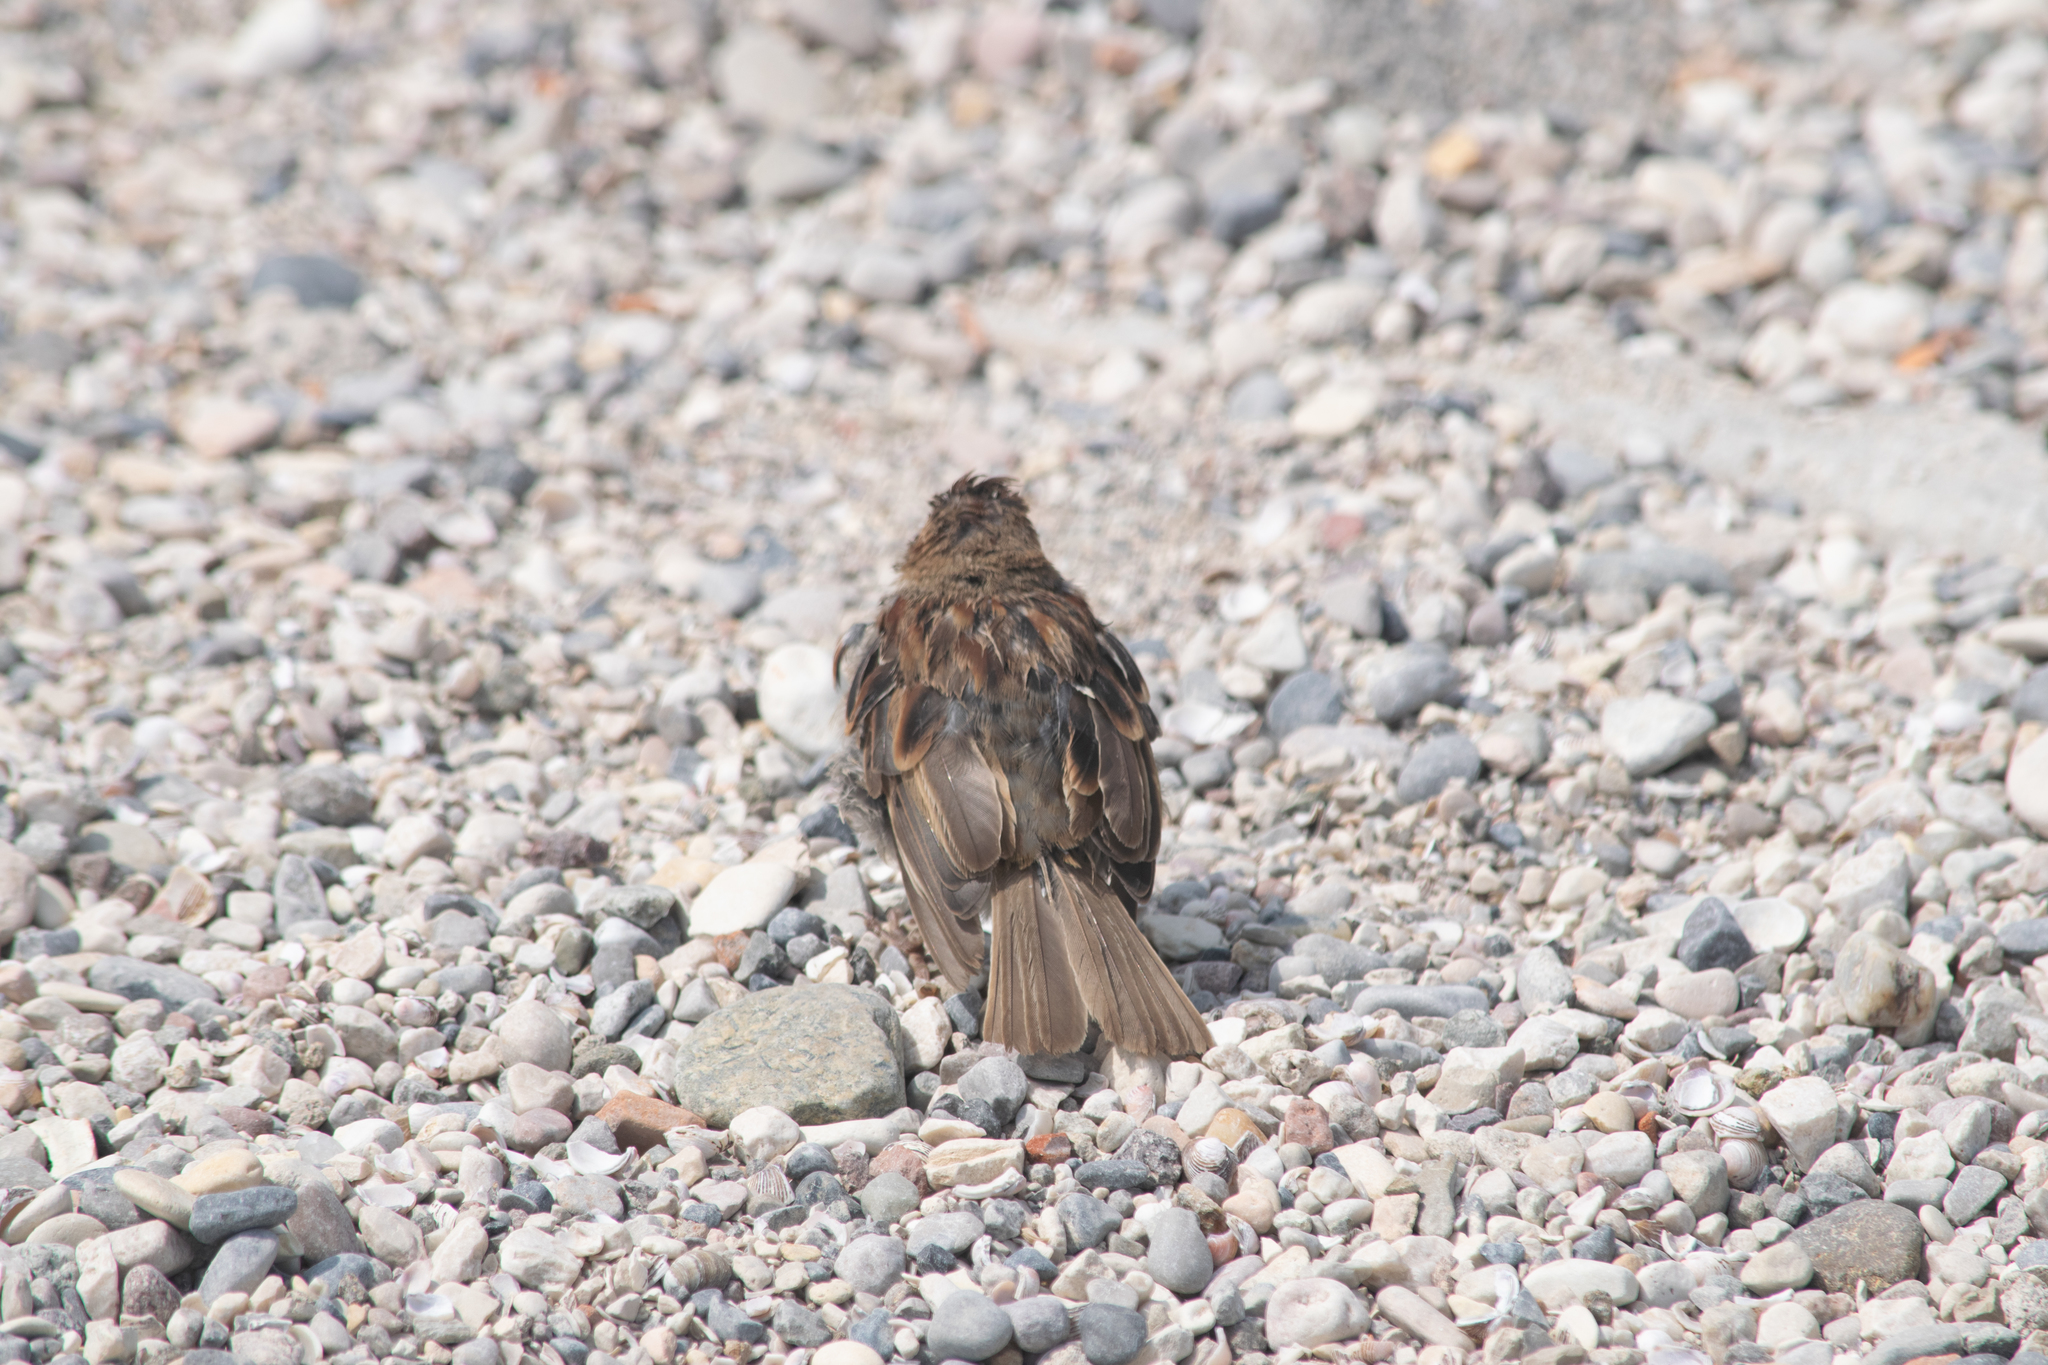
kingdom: Animalia
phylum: Chordata
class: Aves
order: Passeriformes
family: Passeridae
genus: Passer
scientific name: Passer italiae
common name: Italian sparrow
